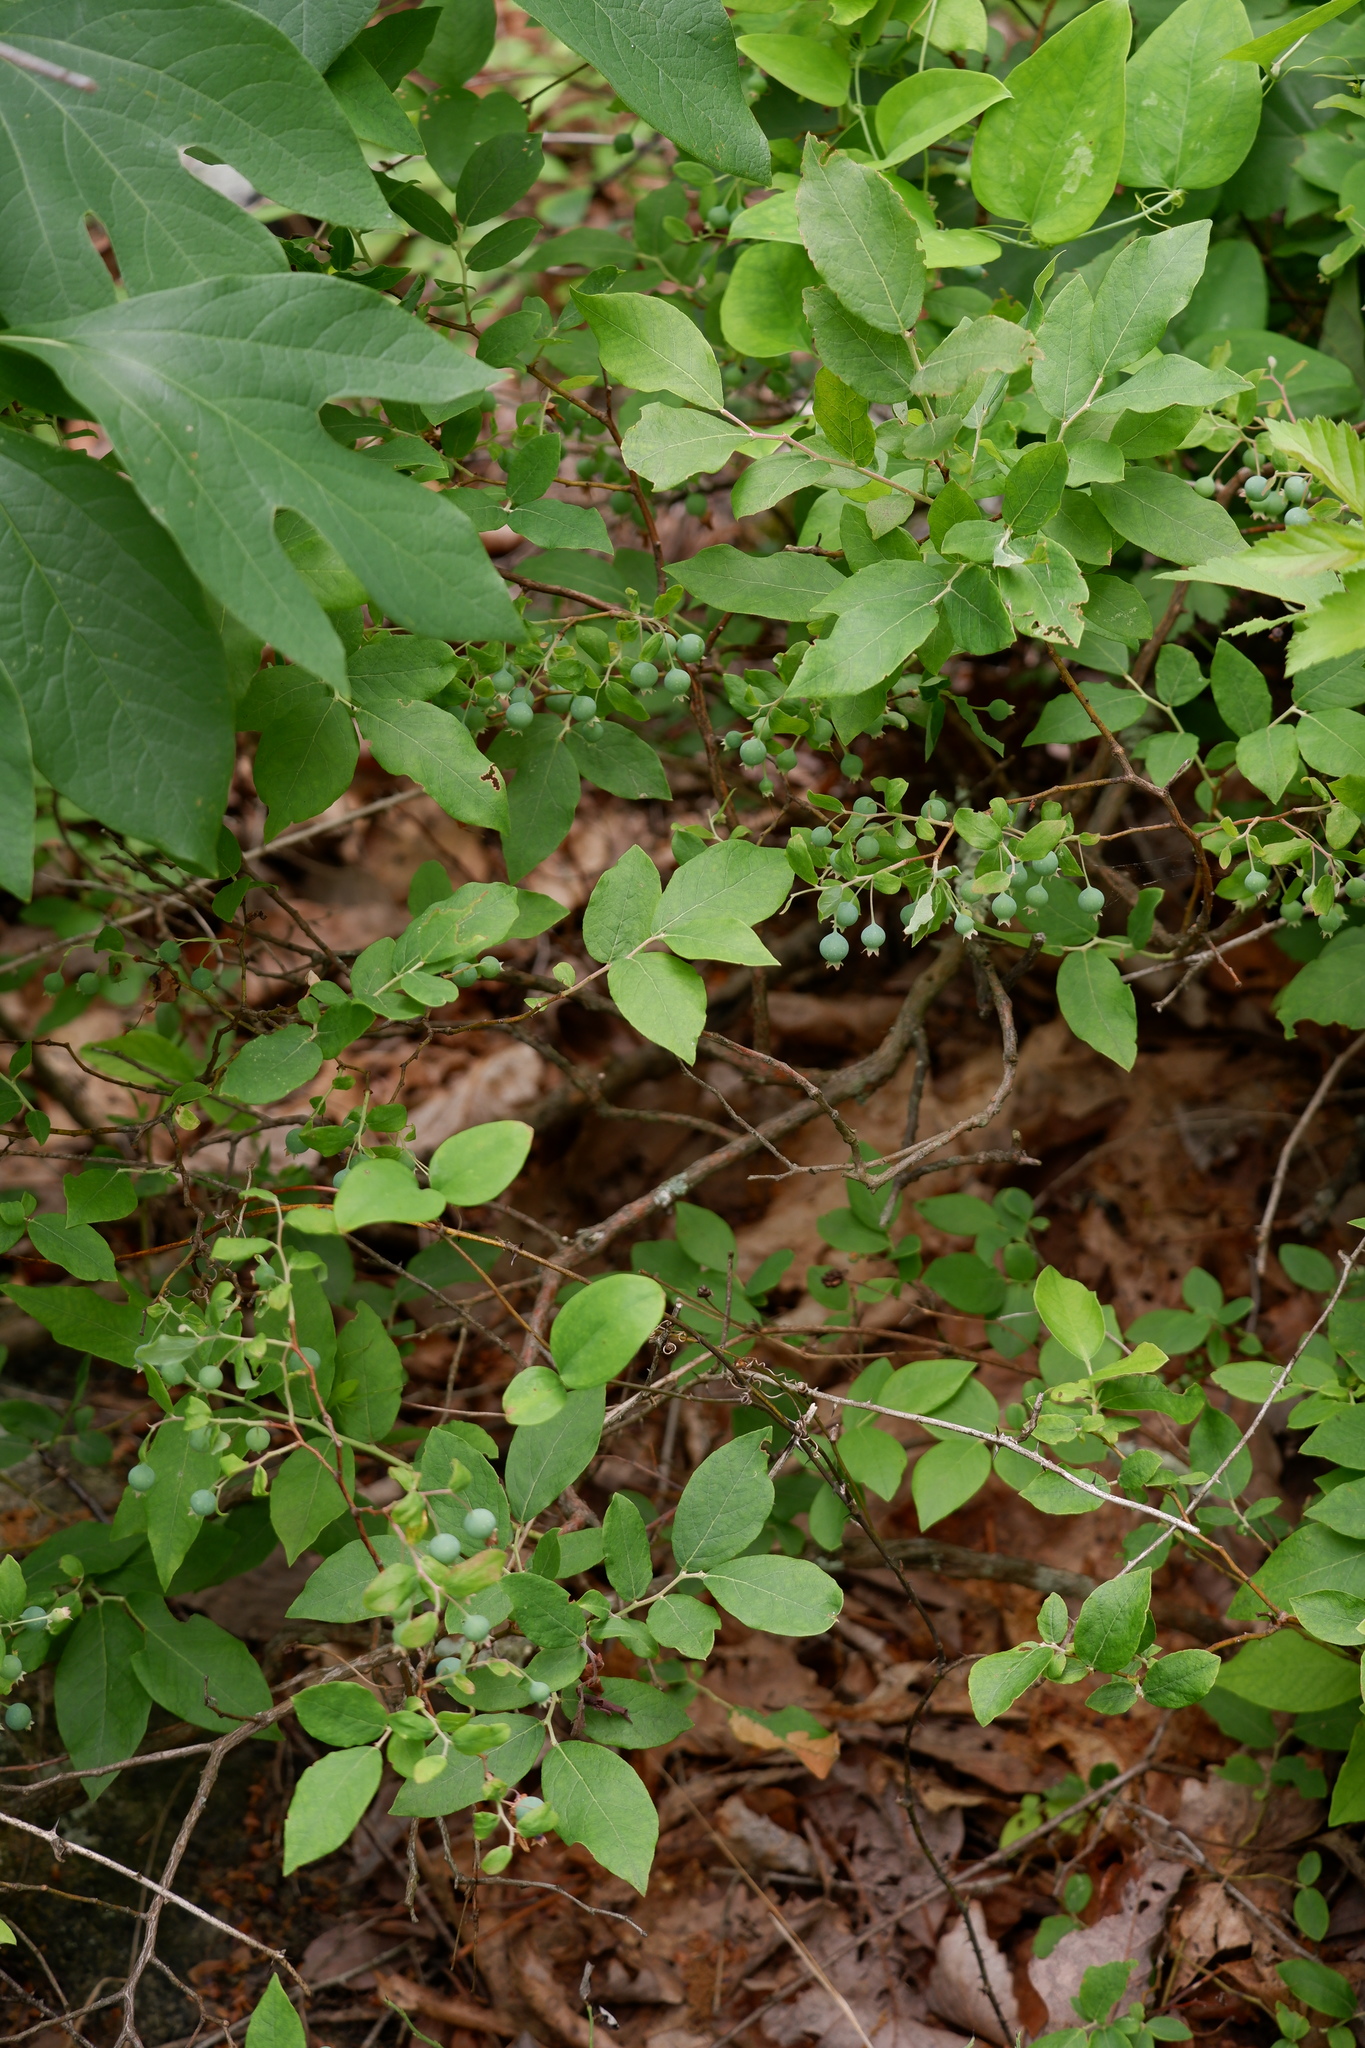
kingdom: Plantae
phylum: Tracheophyta
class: Magnoliopsida
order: Ericales
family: Ericaceae
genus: Vaccinium
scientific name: Vaccinium stamineum
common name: Deerberry
